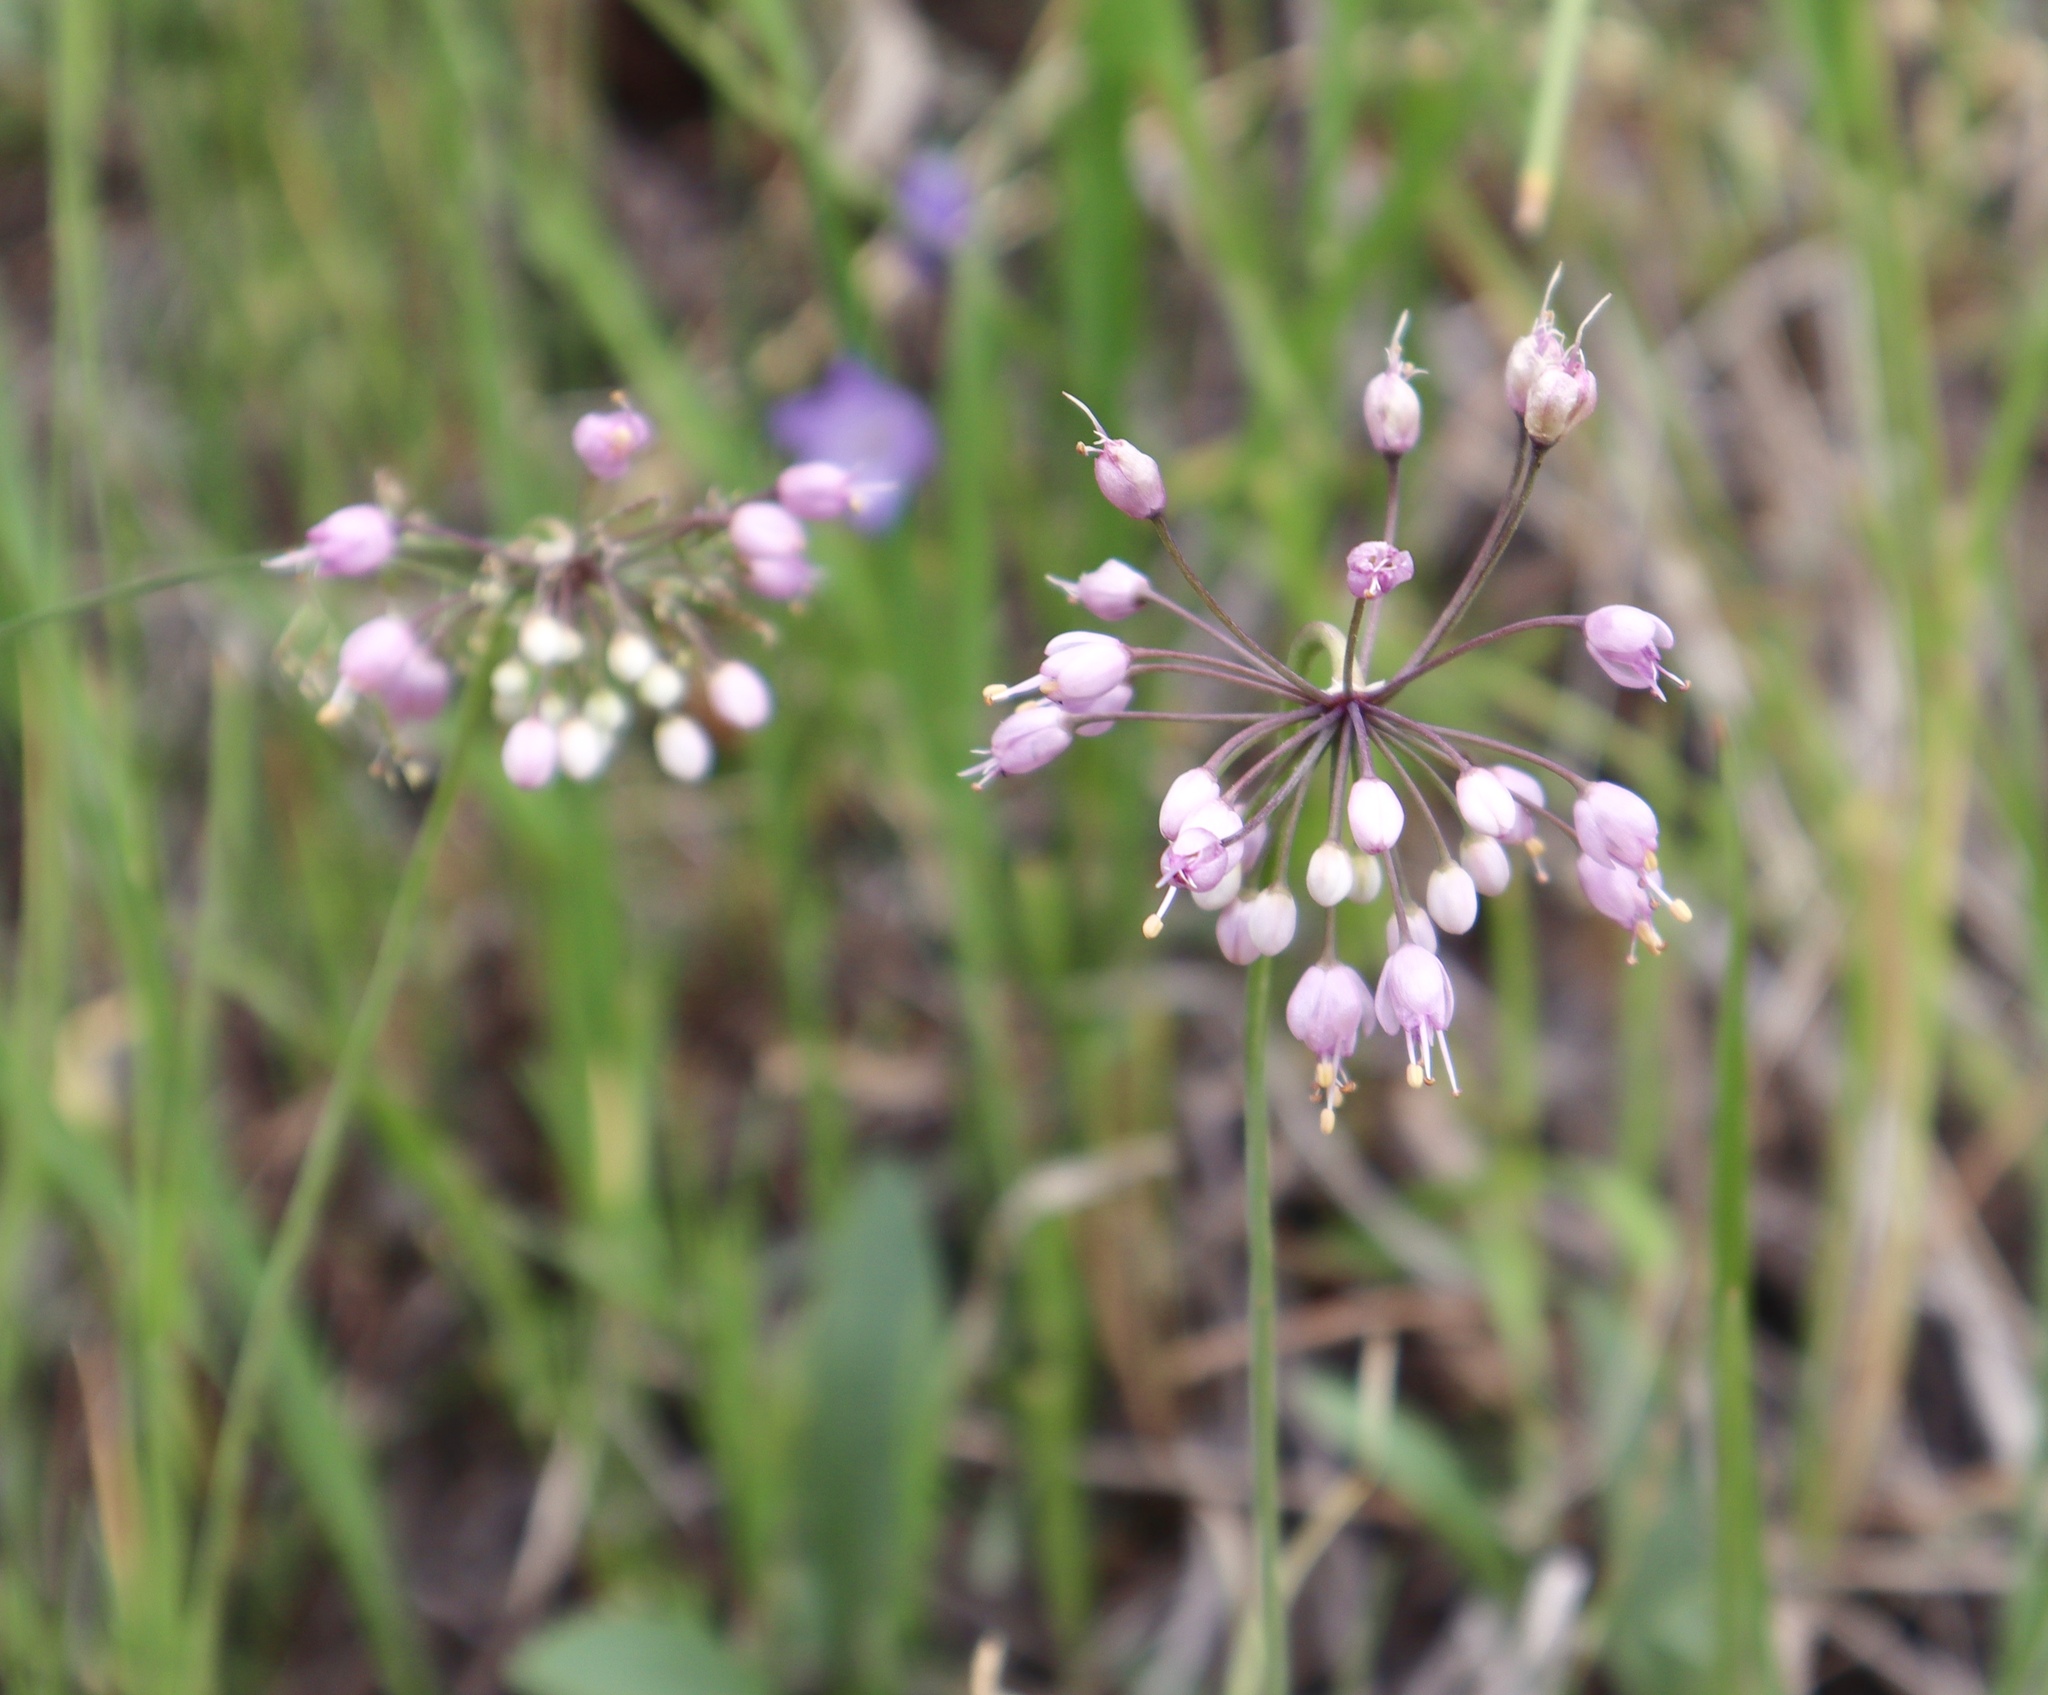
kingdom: Plantae
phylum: Tracheophyta
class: Liliopsida
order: Asparagales
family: Amaryllidaceae
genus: Allium
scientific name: Allium cernuum
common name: Nodding onion
